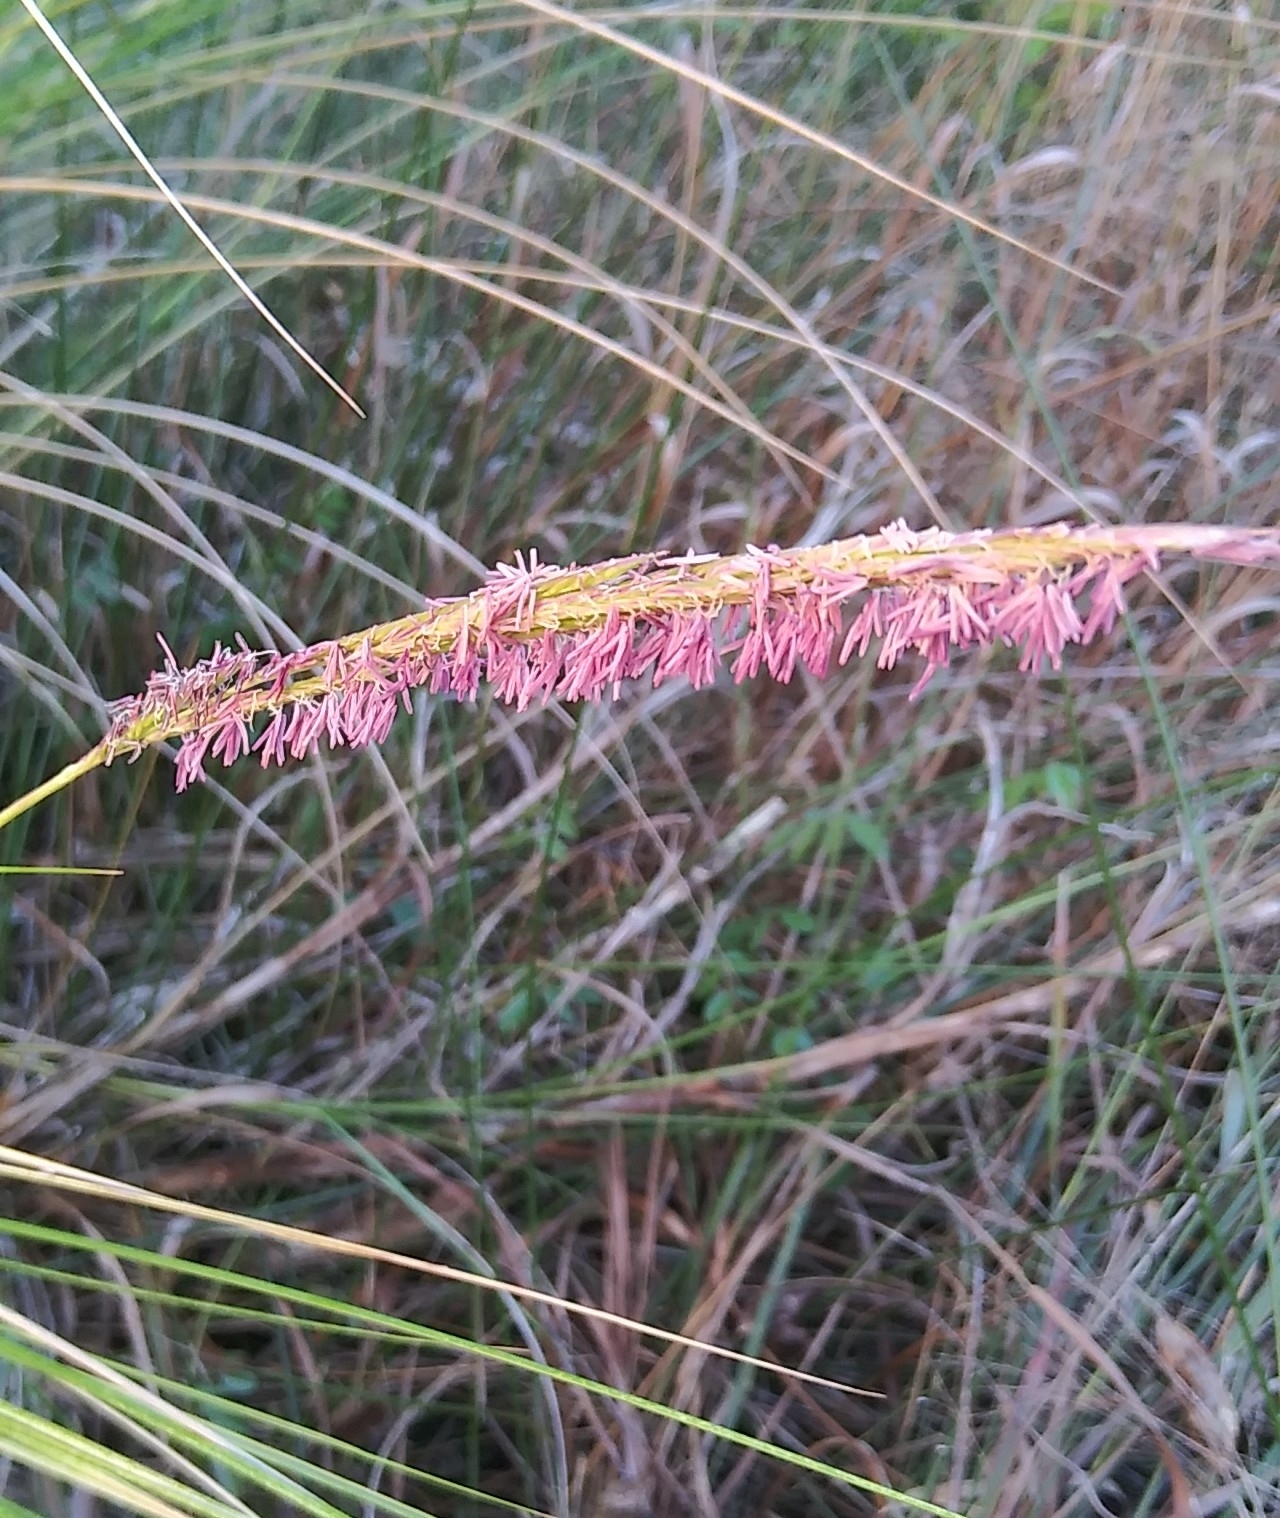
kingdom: Plantae
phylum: Tracheophyta
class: Liliopsida
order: Poales
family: Poaceae
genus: Sporobolus
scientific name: Sporobolus bakeri
